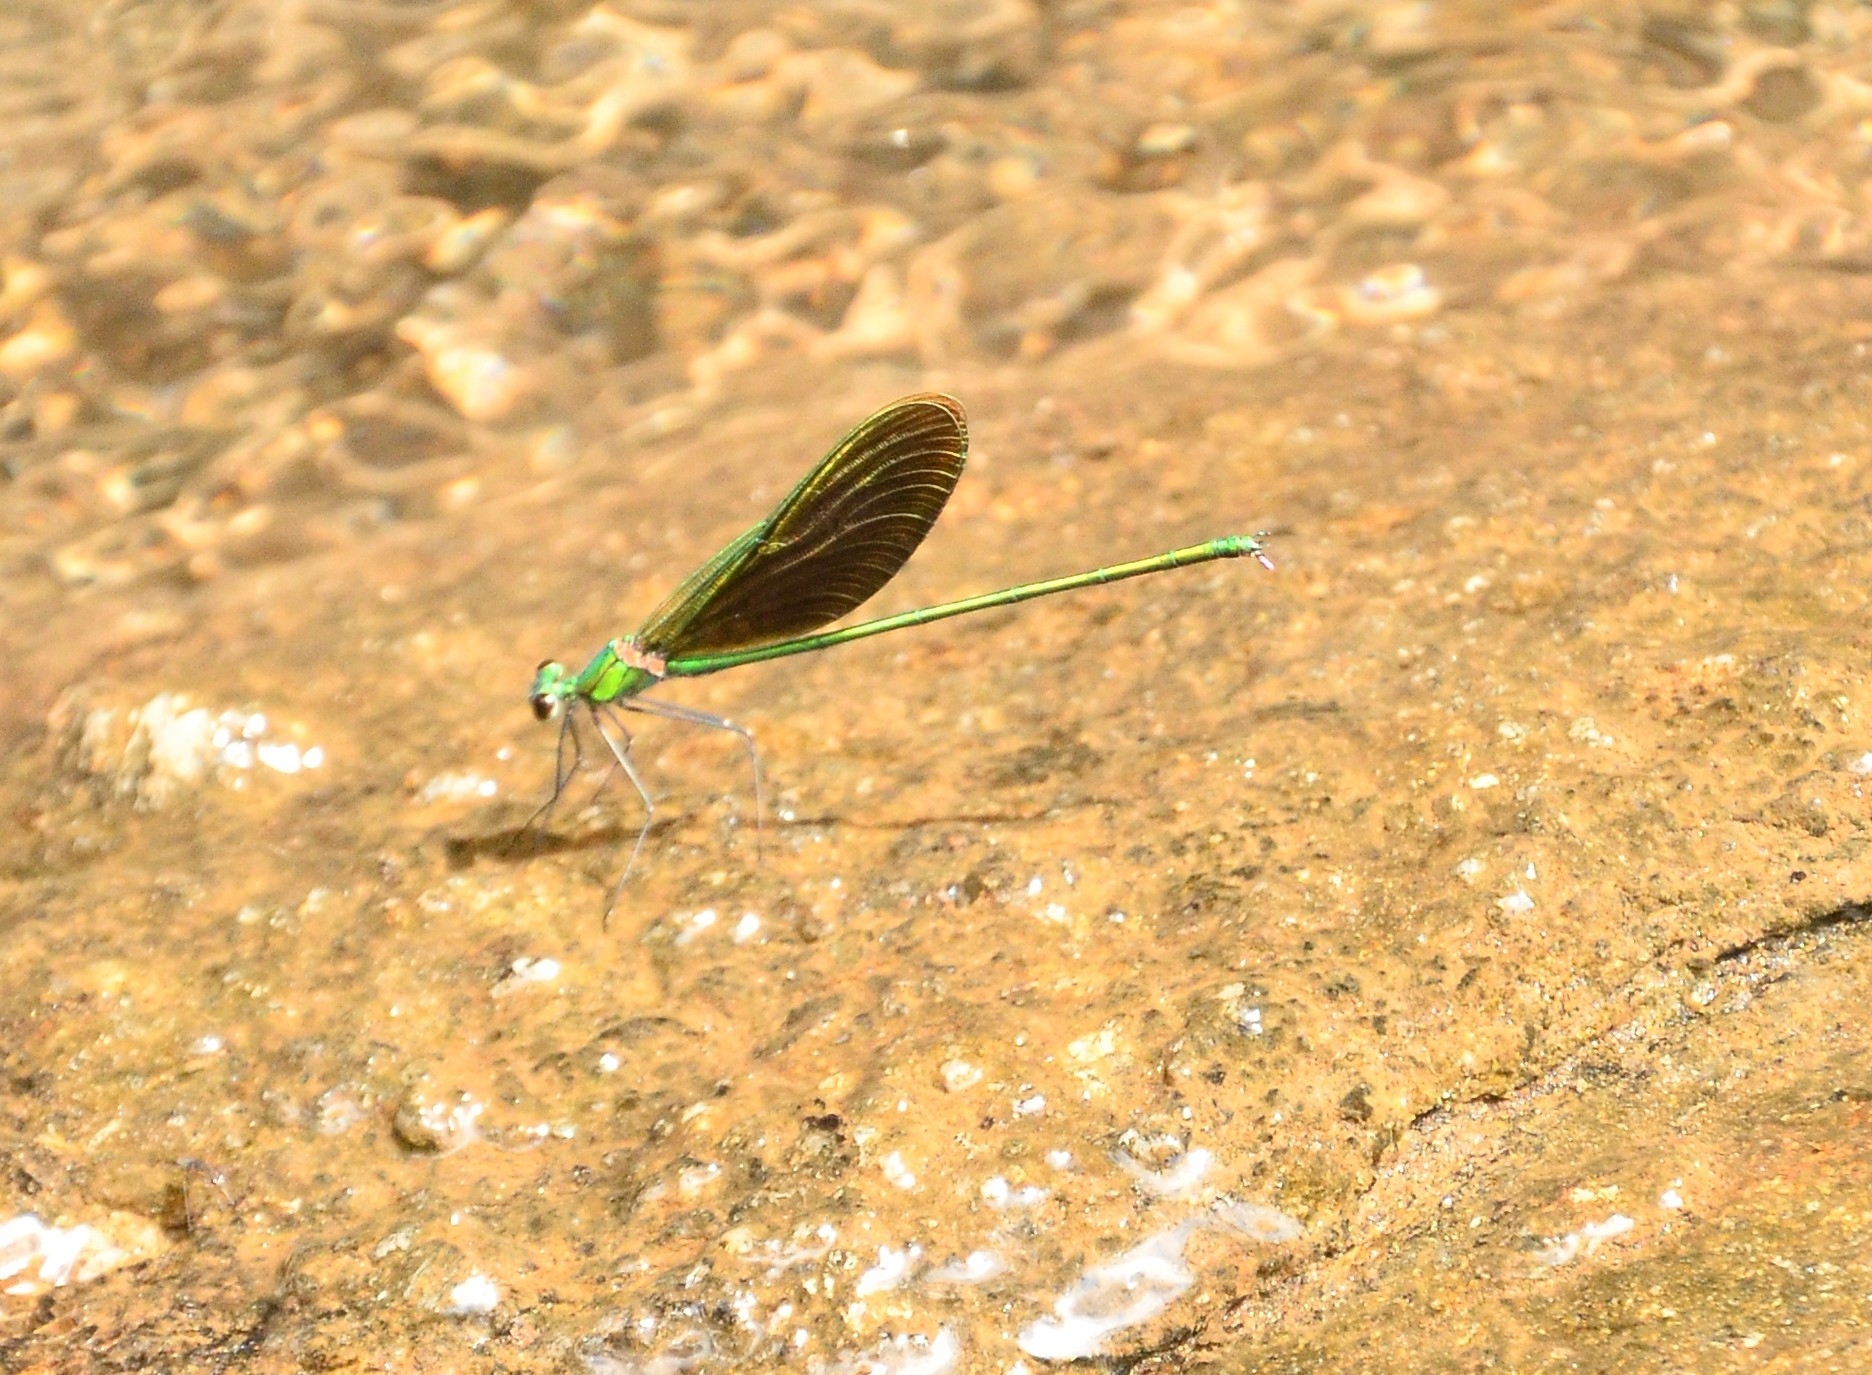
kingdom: Animalia
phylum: Arthropoda
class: Insecta
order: Odonata
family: Calopterygidae
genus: Neurobasis
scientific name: Neurobasis chinensis
